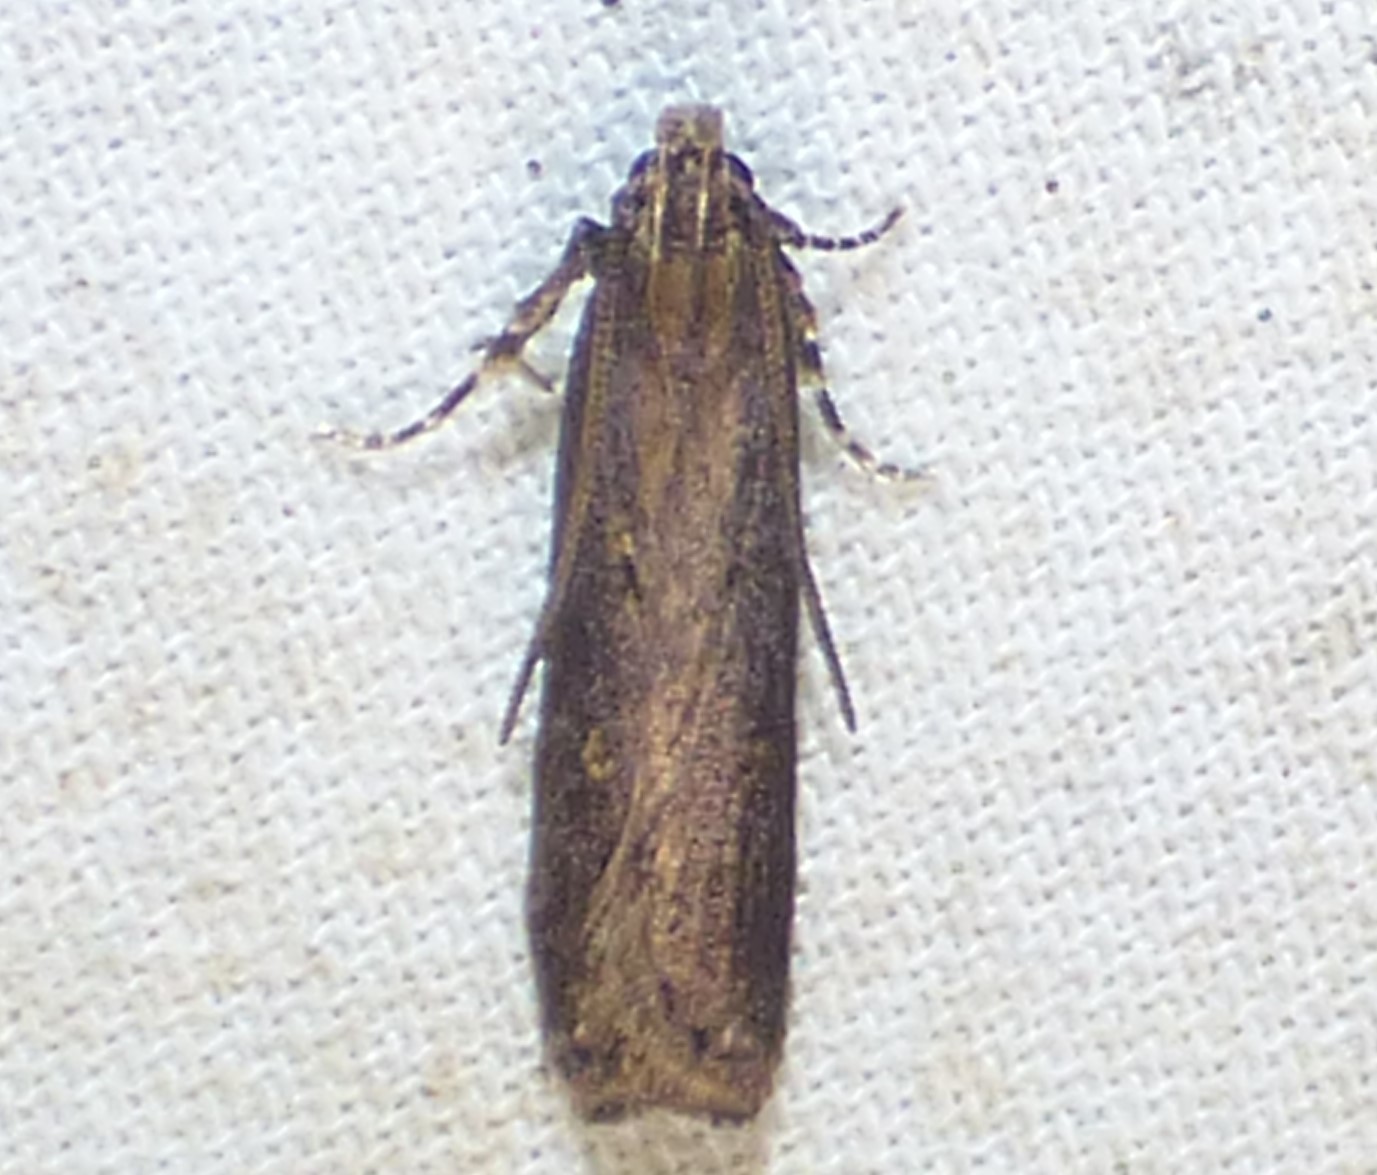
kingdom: Animalia
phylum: Arthropoda
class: Insecta
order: Lepidoptera
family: Gelechiidae
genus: Chionodes
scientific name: Chionodes discoocellella
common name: Eye-ringed chionodes moth
